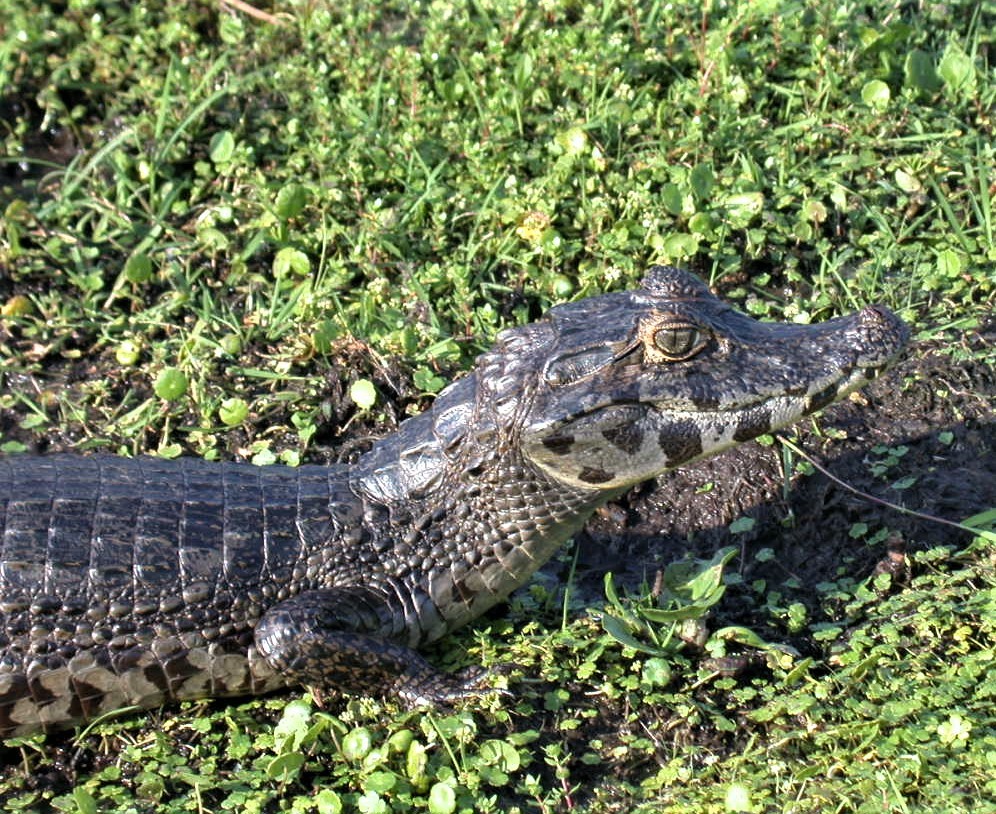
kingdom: Animalia
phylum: Chordata
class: Crocodylia
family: Alligatoridae
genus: Caiman
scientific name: Caiman yacare
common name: Yacare caiman
